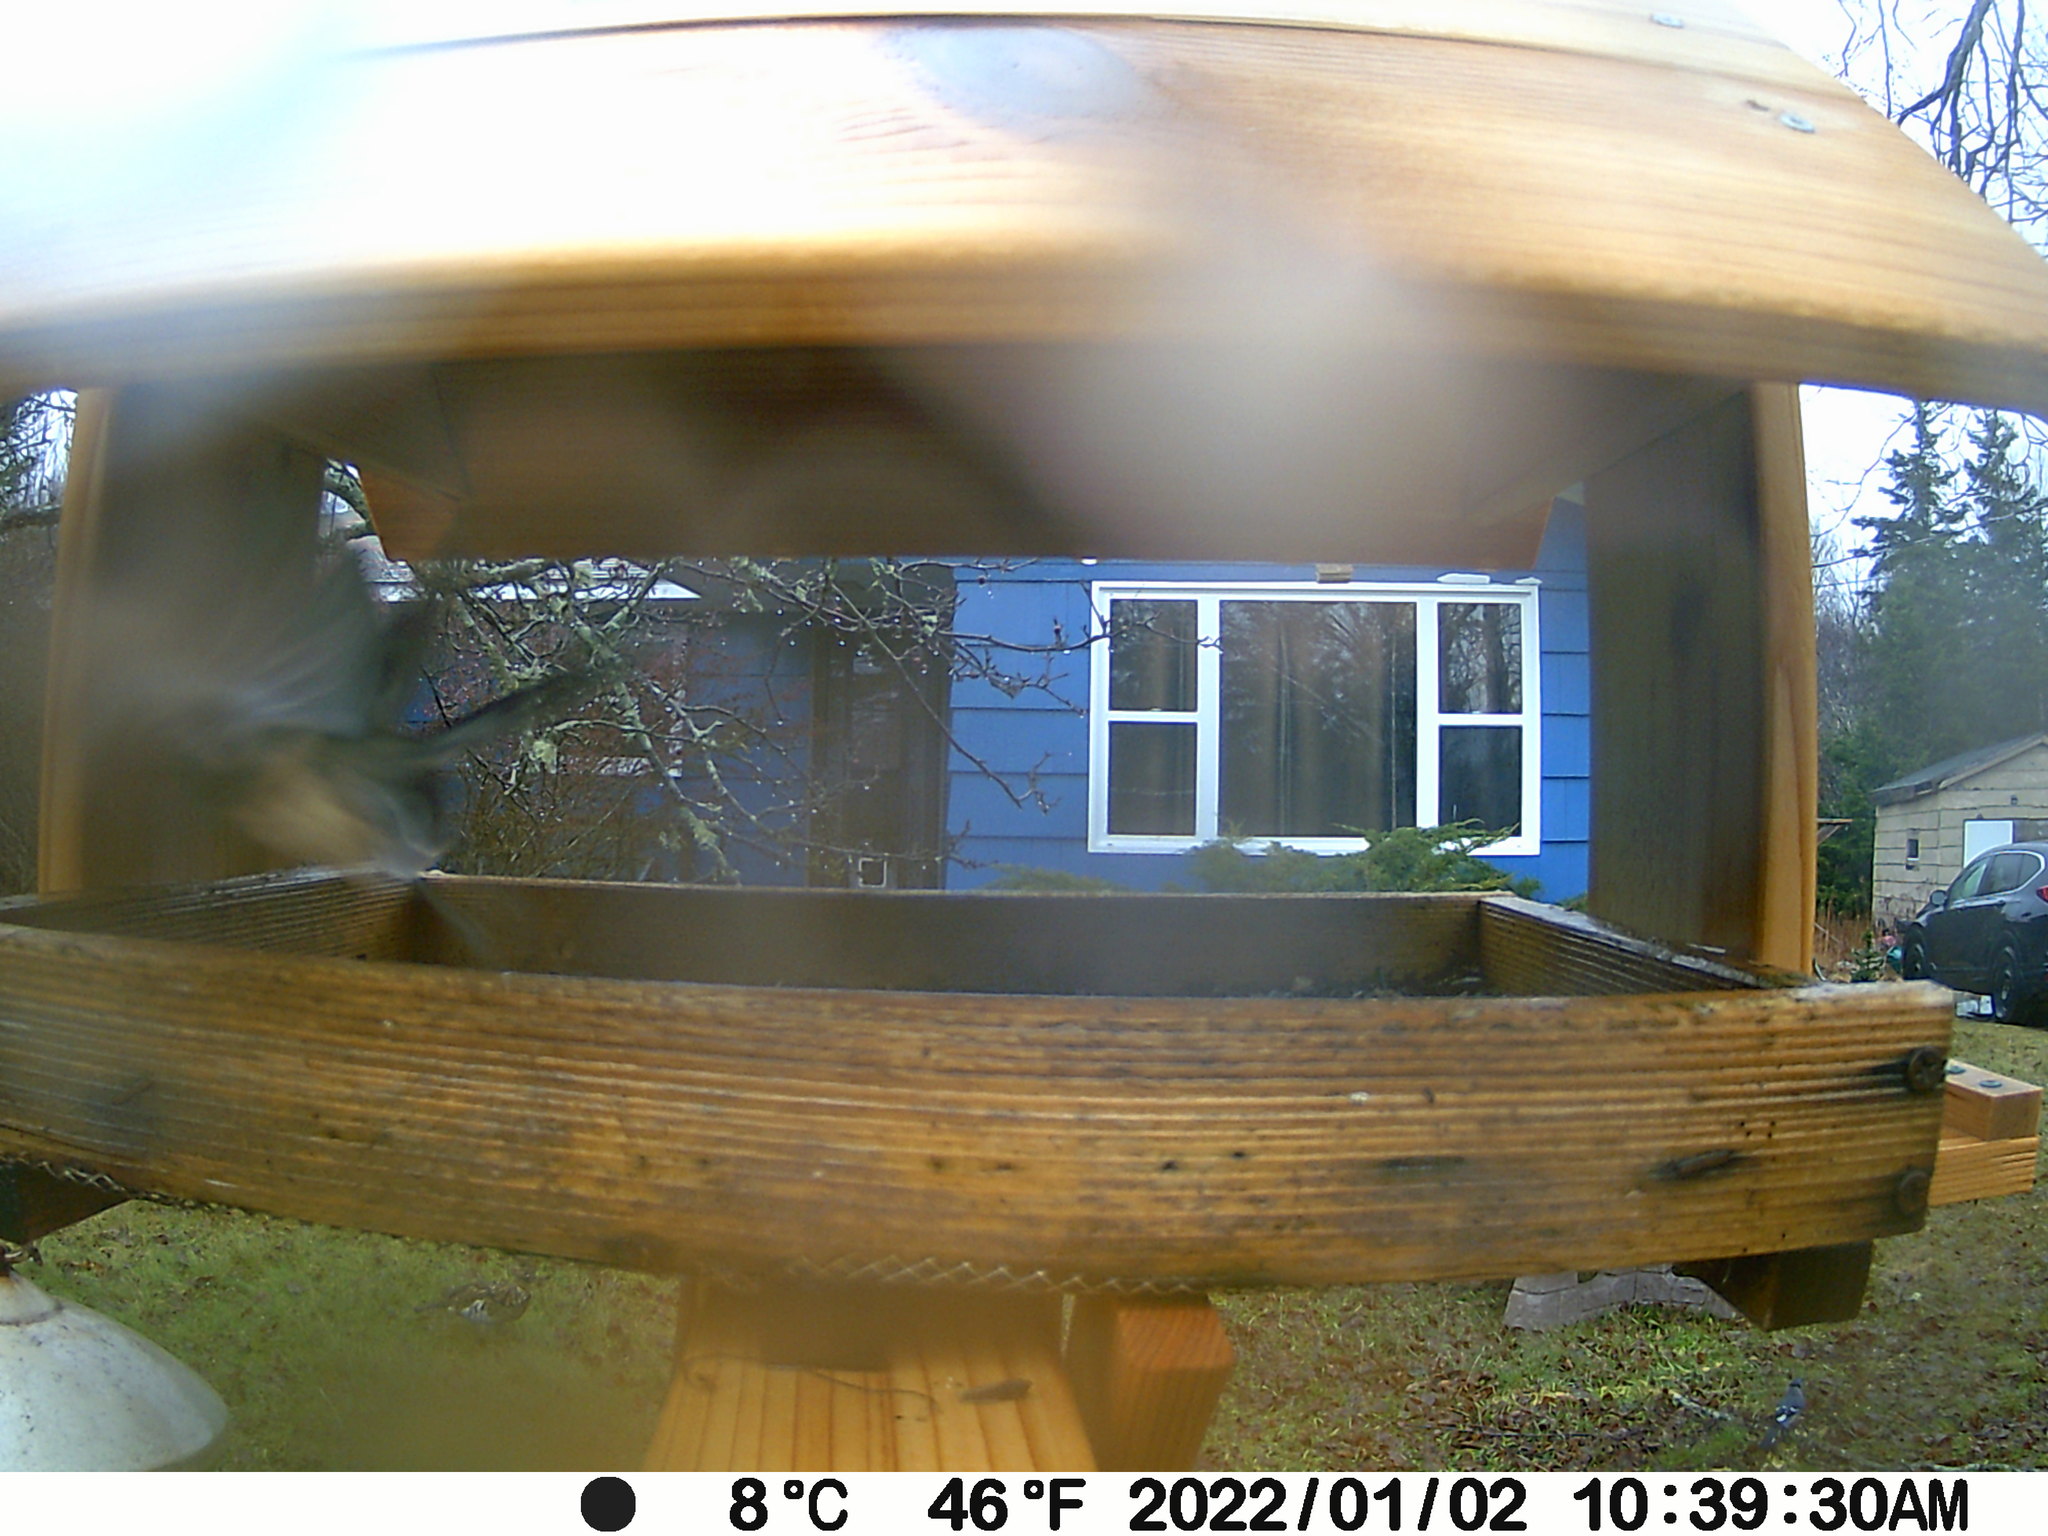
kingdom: Animalia
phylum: Chordata
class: Aves
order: Galliformes
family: Phasianidae
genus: Bonasa
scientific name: Bonasa umbellus
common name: Ruffed grouse
